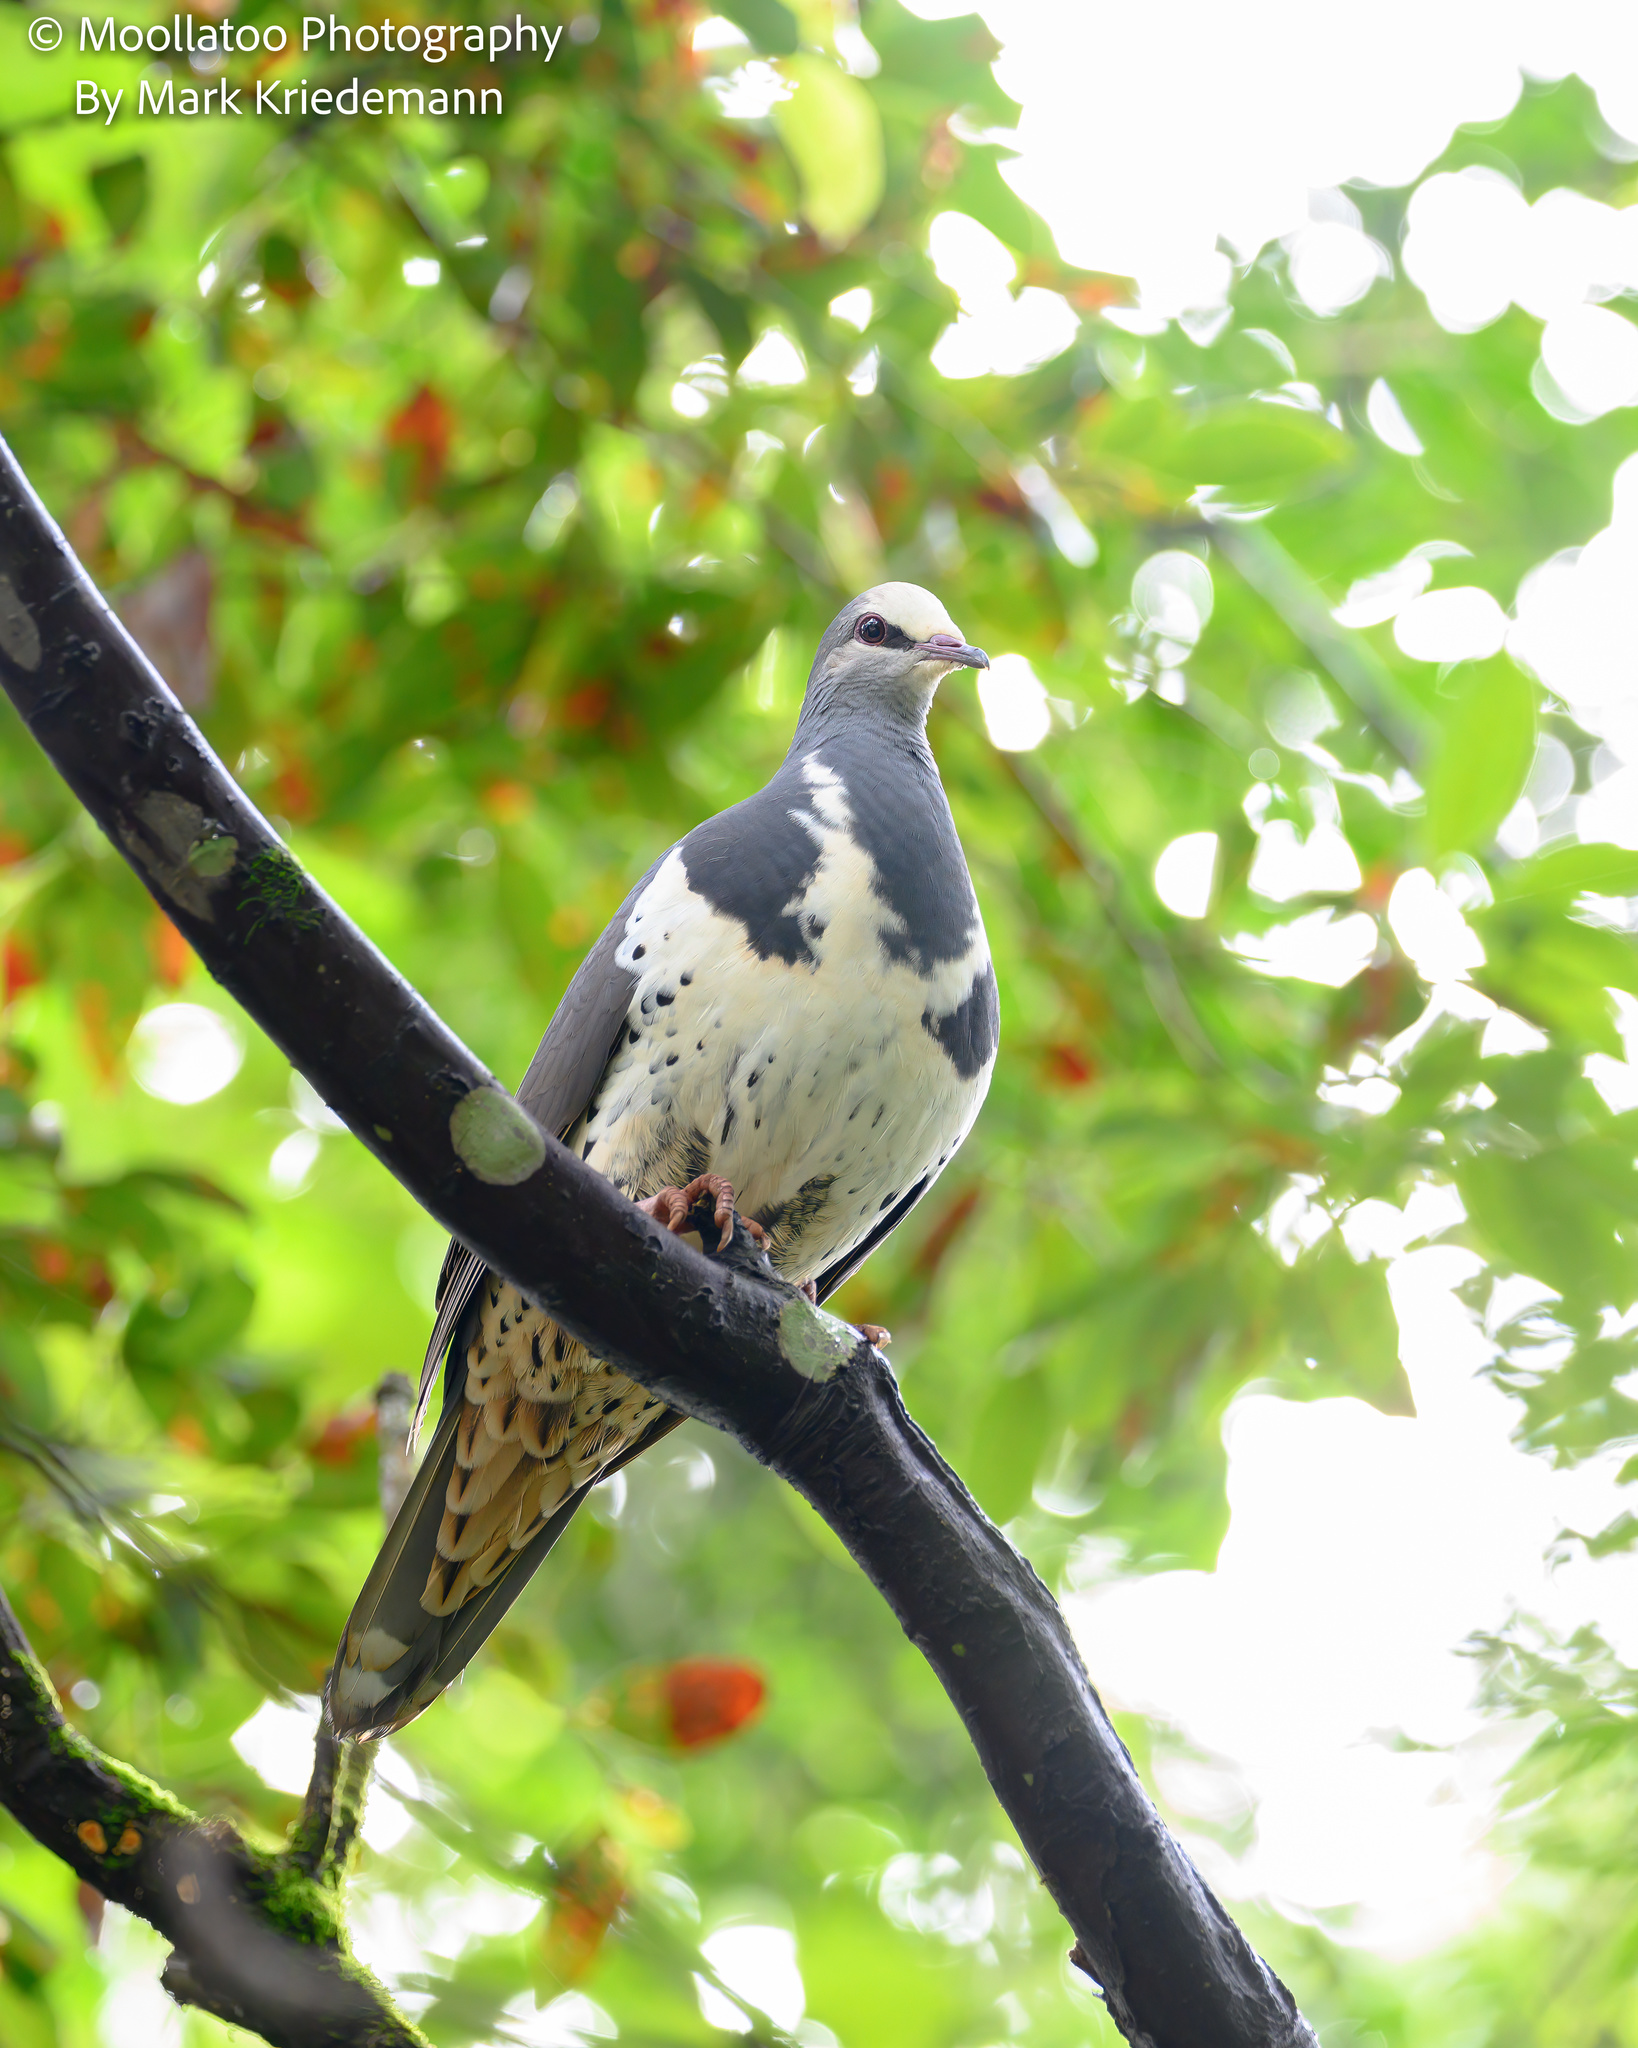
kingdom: Animalia
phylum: Chordata
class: Aves
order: Columbiformes
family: Columbidae
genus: Leucosarcia
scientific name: Leucosarcia melanoleuca
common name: Wonga pigeon
